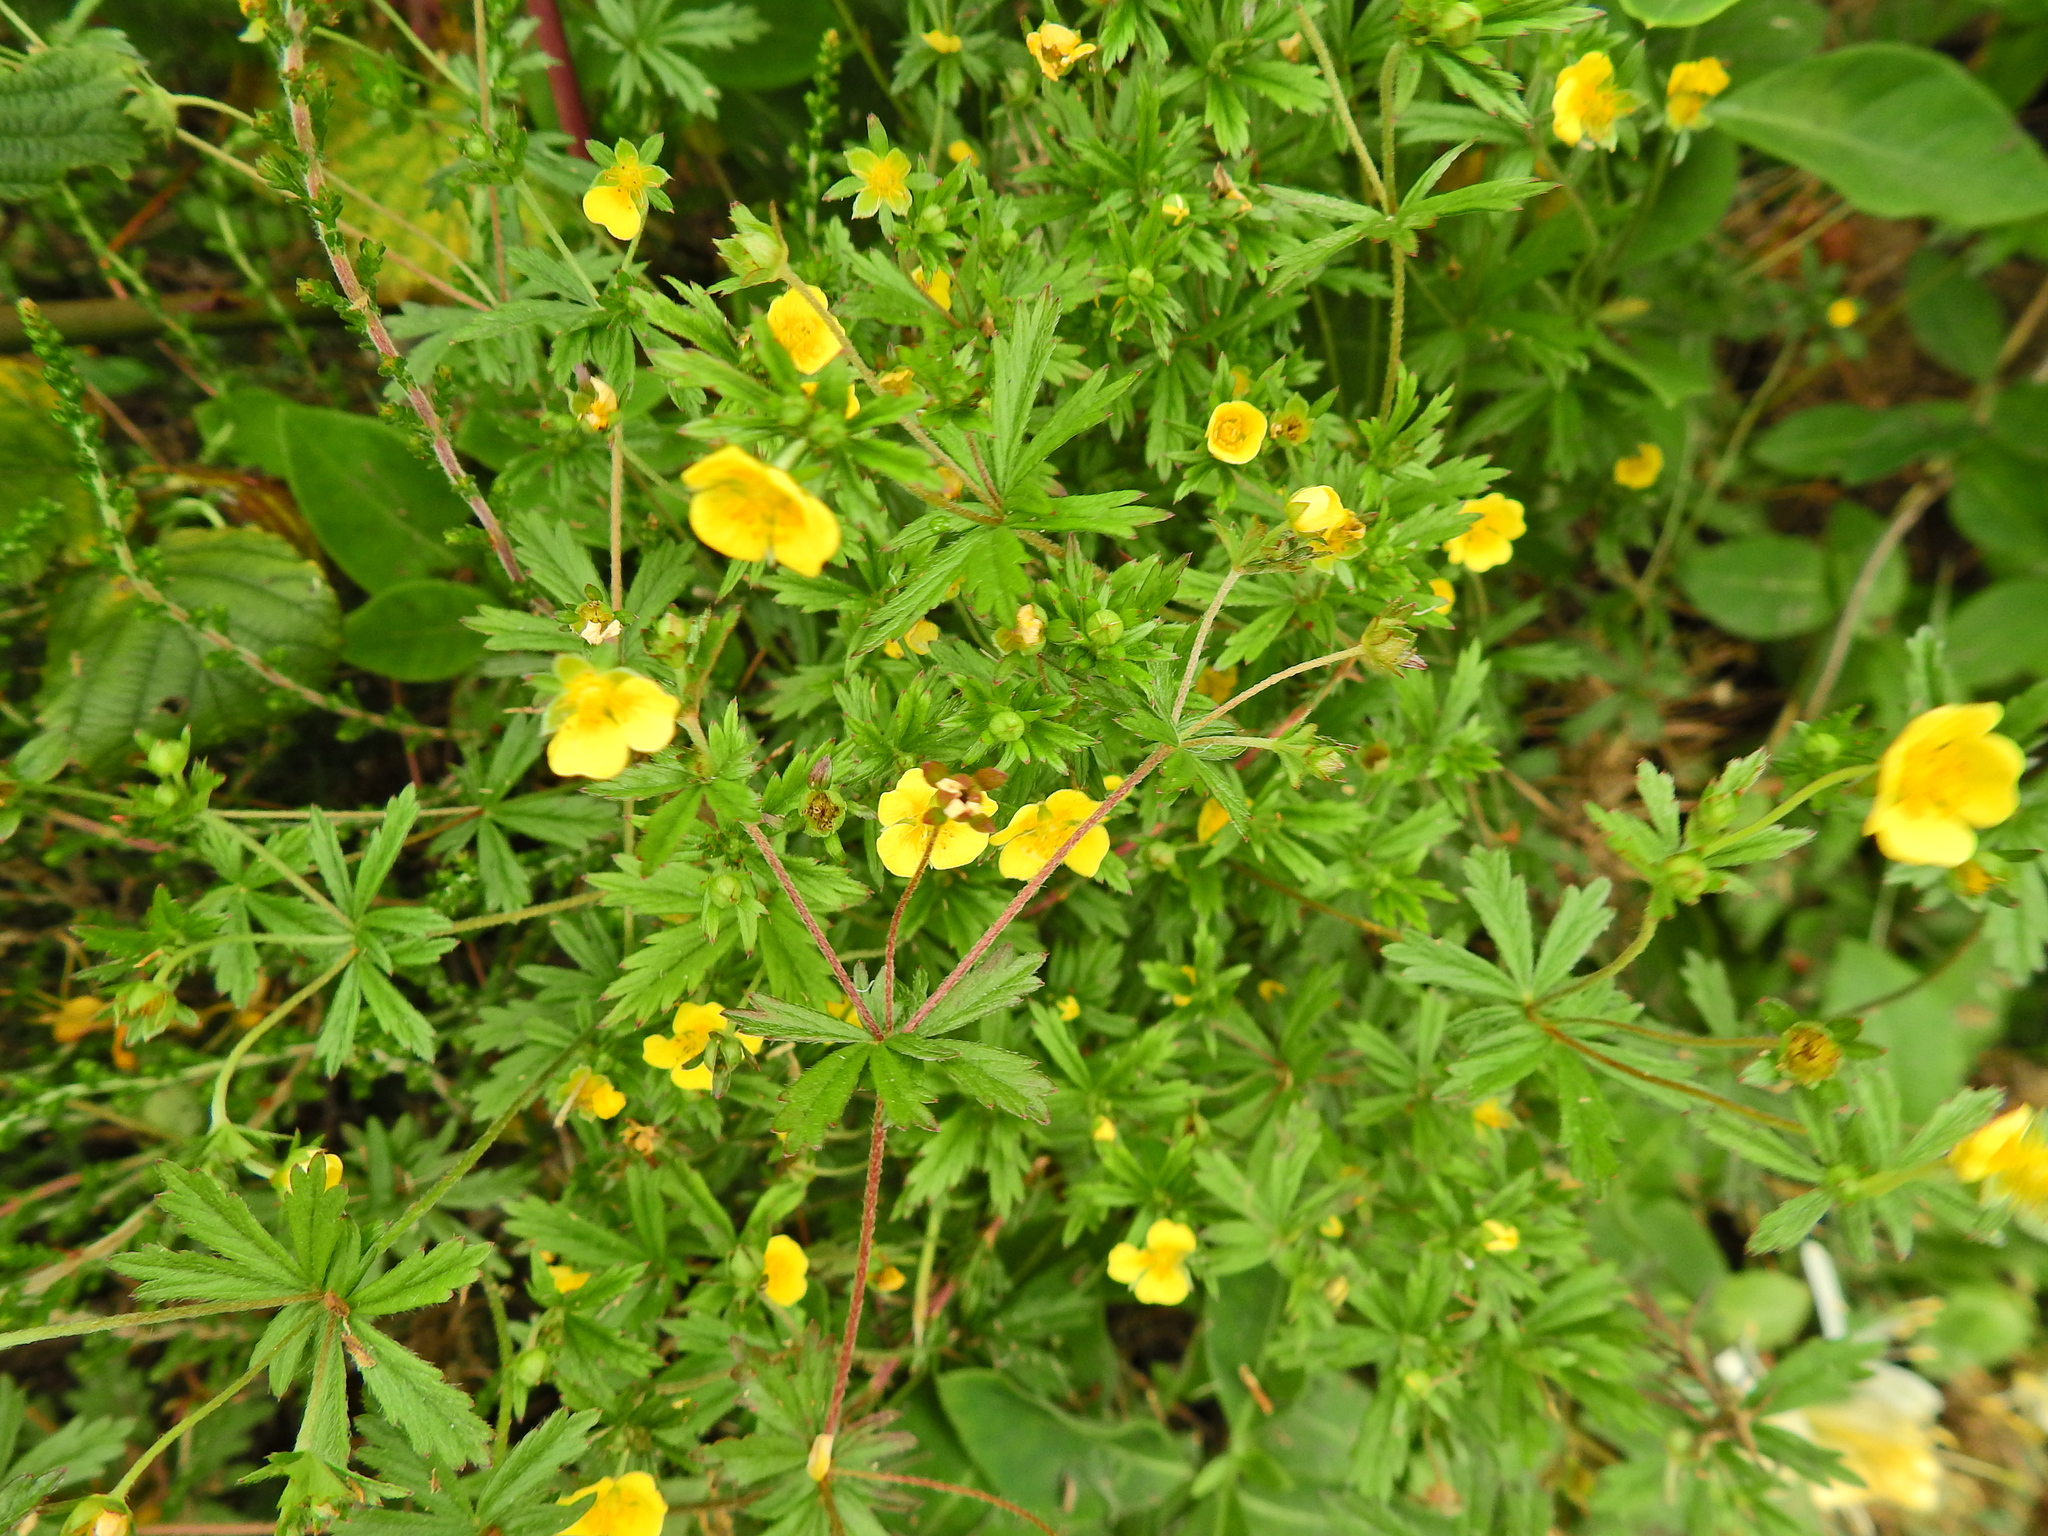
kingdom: Plantae
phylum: Tracheophyta
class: Magnoliopsida
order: Rosales
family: Rosaceae
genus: Potentilla
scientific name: Potentilla erecta
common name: Tormentil
